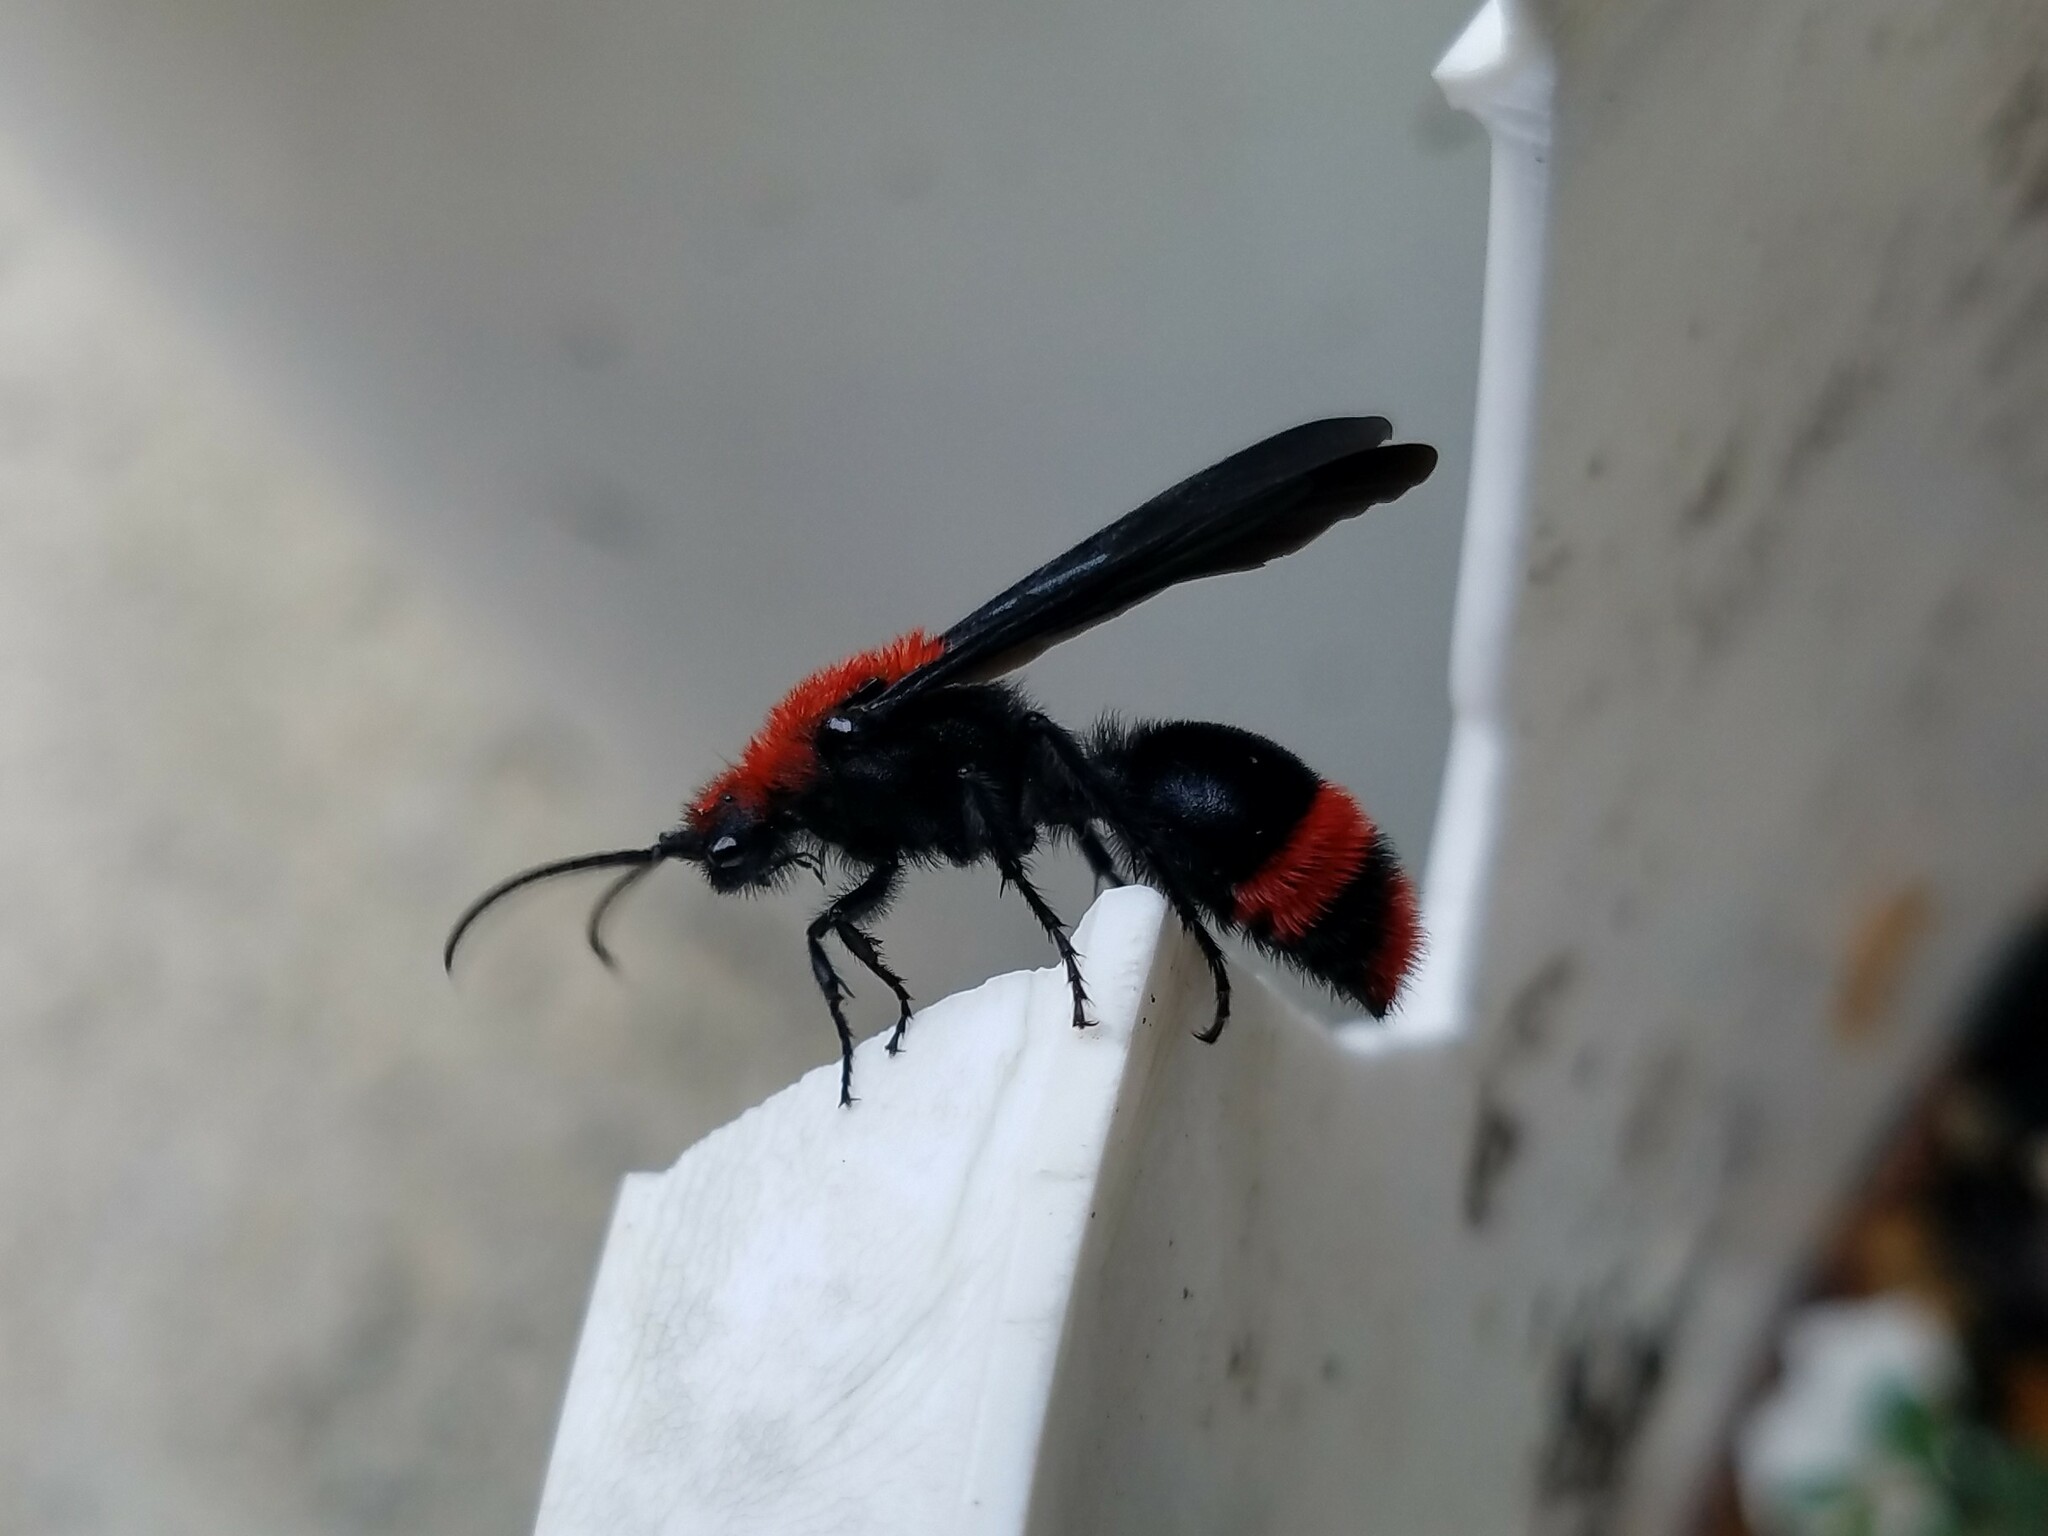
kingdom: Animalia
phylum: Arthropoda
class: Insecta
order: Hymenoptera
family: Mutillidae
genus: Dasymutilla
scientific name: Dasymutilla occidentalis
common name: Common eastern velvet ant
